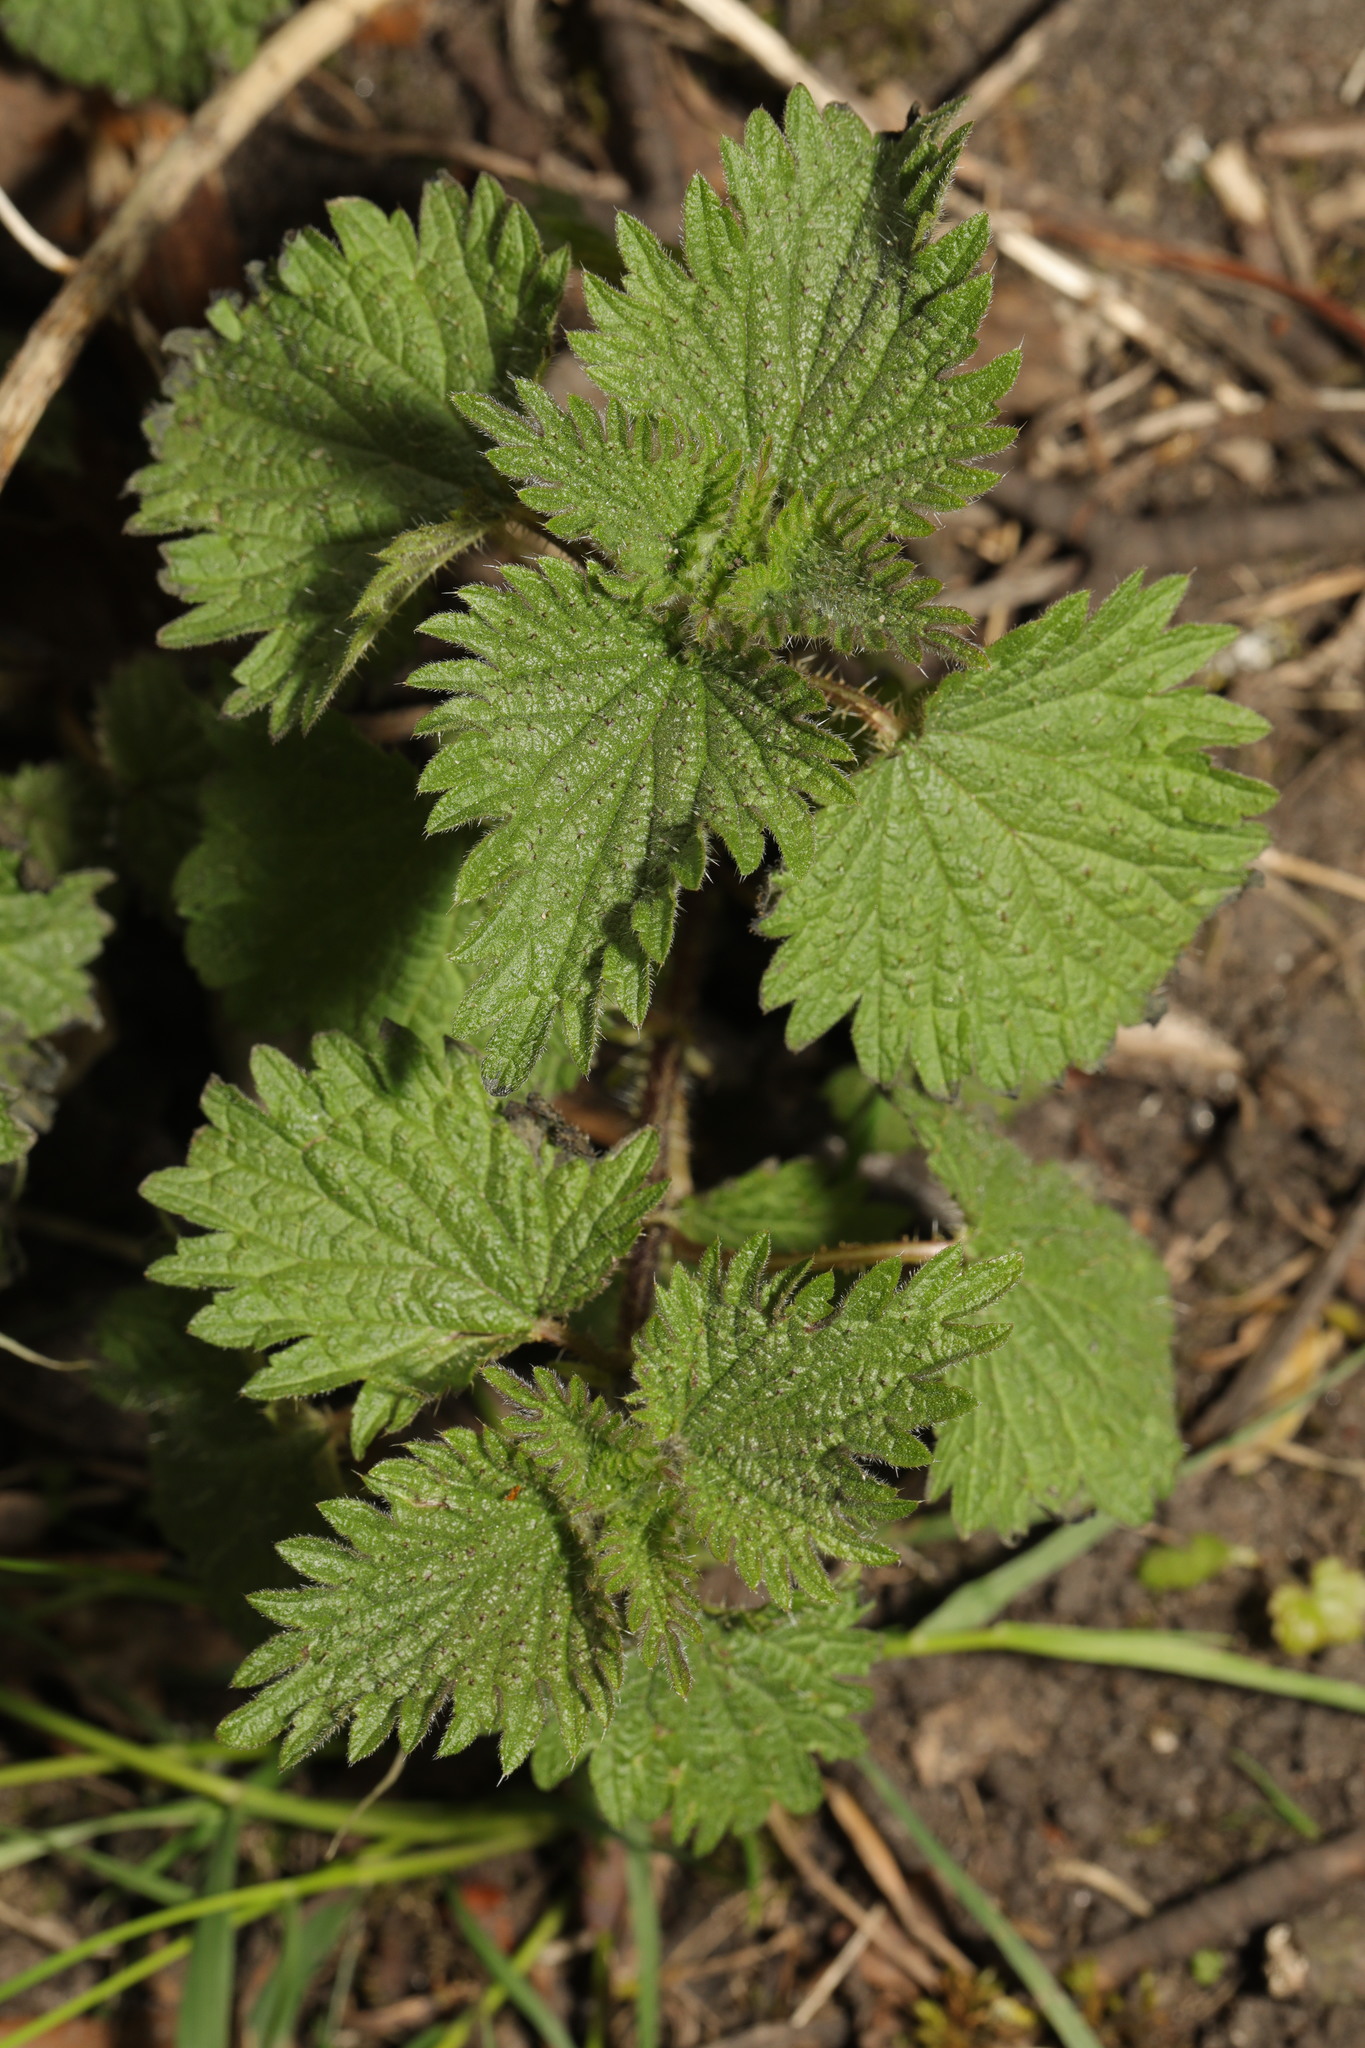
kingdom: Plantae
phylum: Tracheophyta
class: Magnoliopsida
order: Rosales
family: Urticaceae
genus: Urtica
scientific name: Urtica dioica
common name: Common nettle
